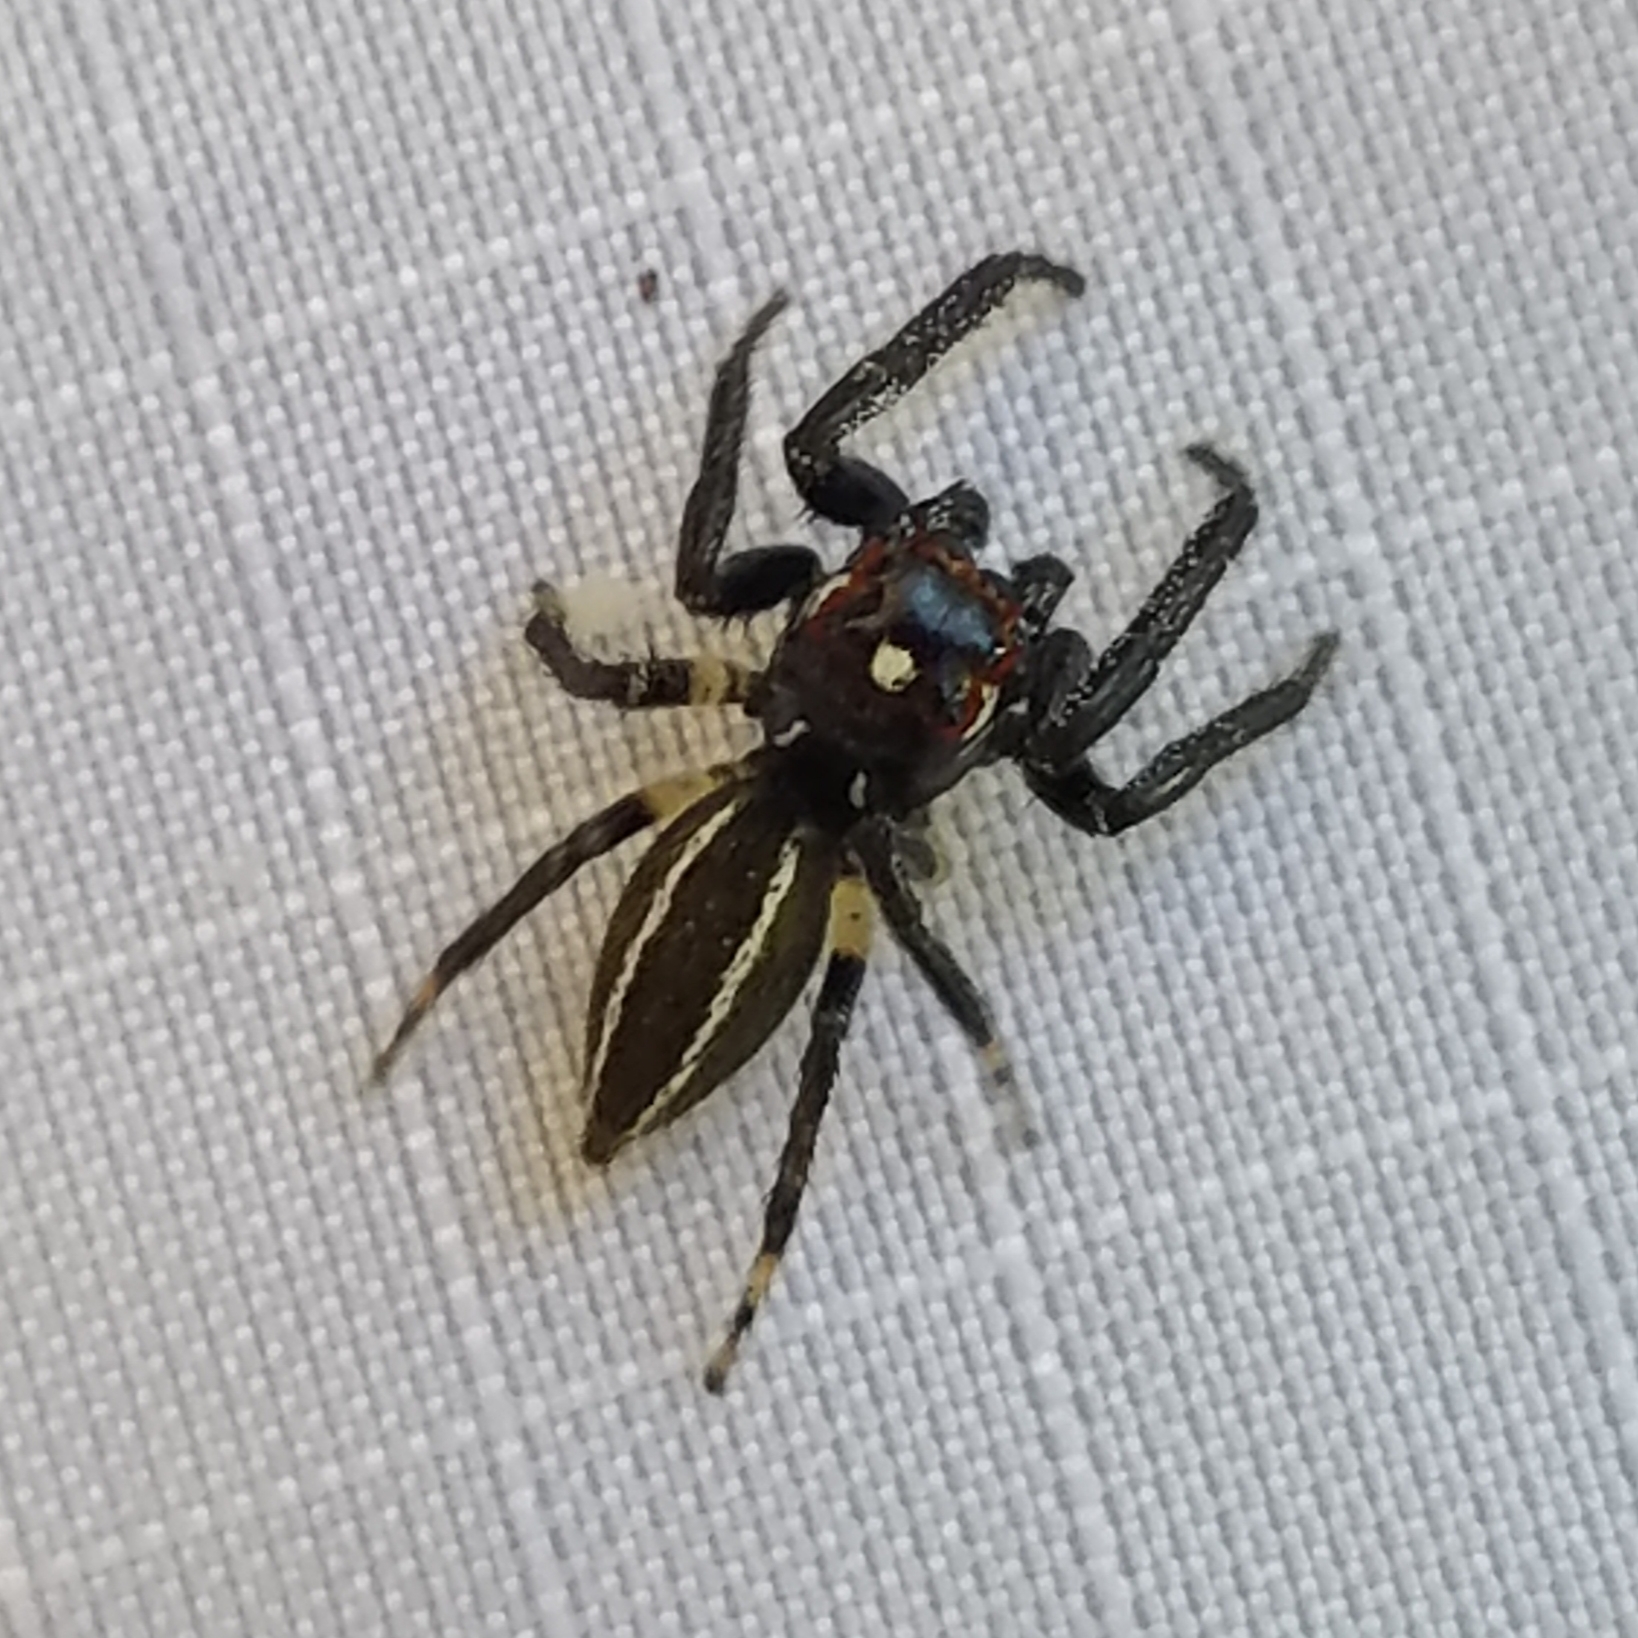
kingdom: Animalia
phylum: Arthropoda
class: Arachnida
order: Araneae
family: Salticidae
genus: Colonus
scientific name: Colonus sylvanus
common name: Jumping spiders
